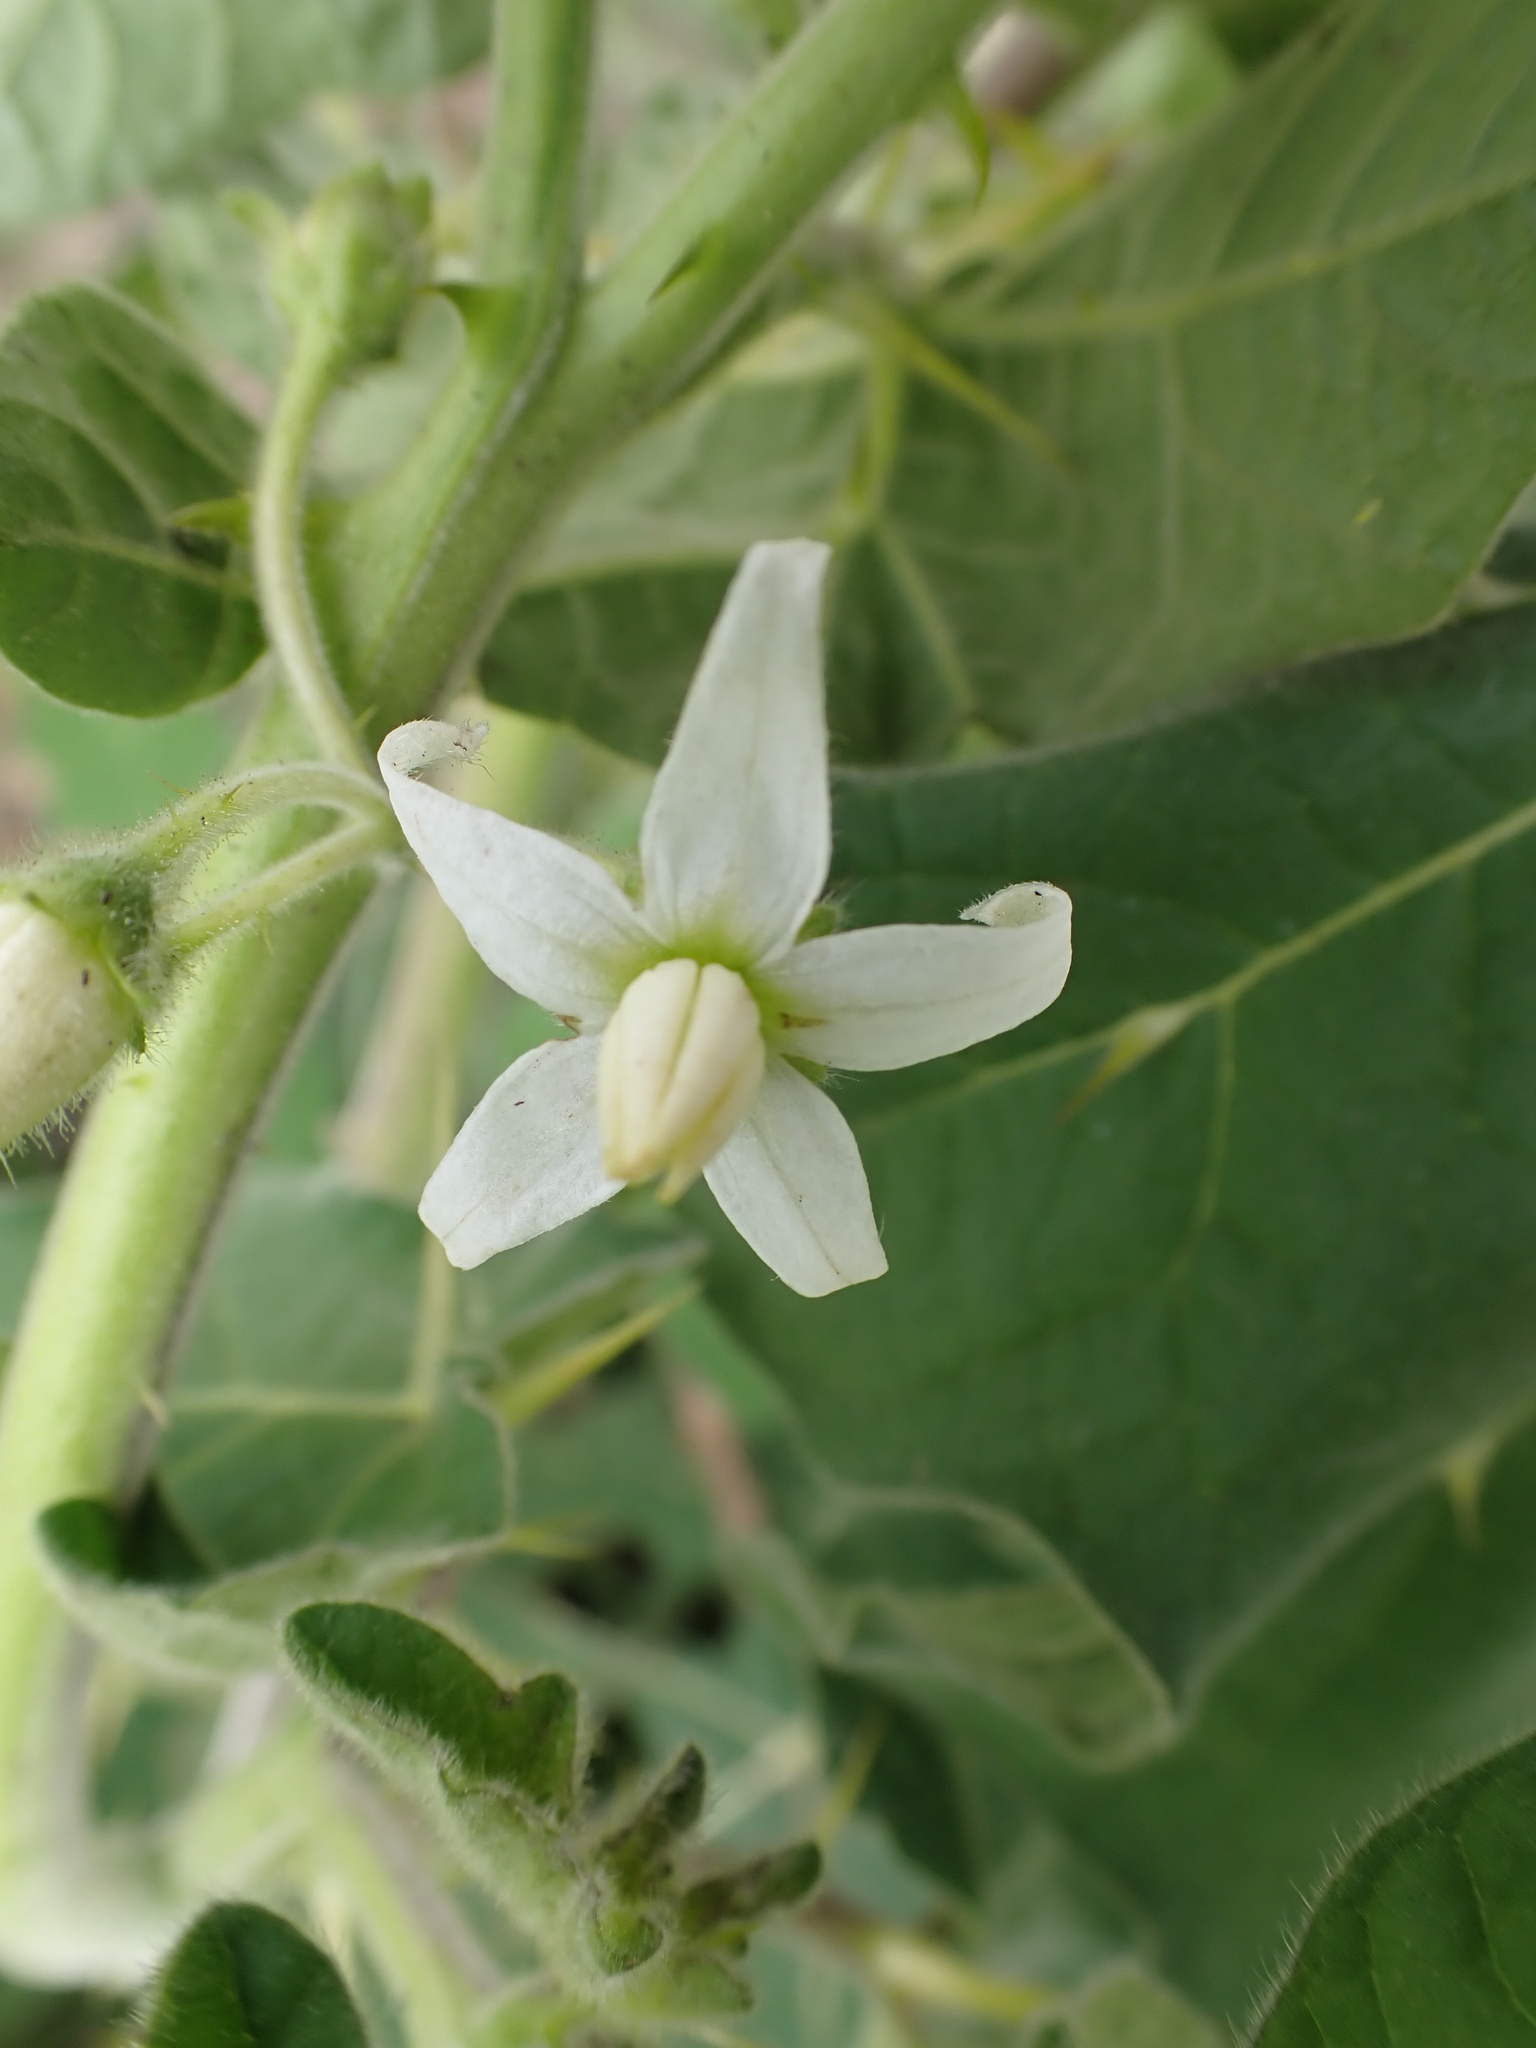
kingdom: Plantae
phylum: Tracheophyta
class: Magnoliopsida
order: Solanales
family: Solanaceae
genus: Solanum
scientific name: Solanum viarum
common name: Tropical soda apple
